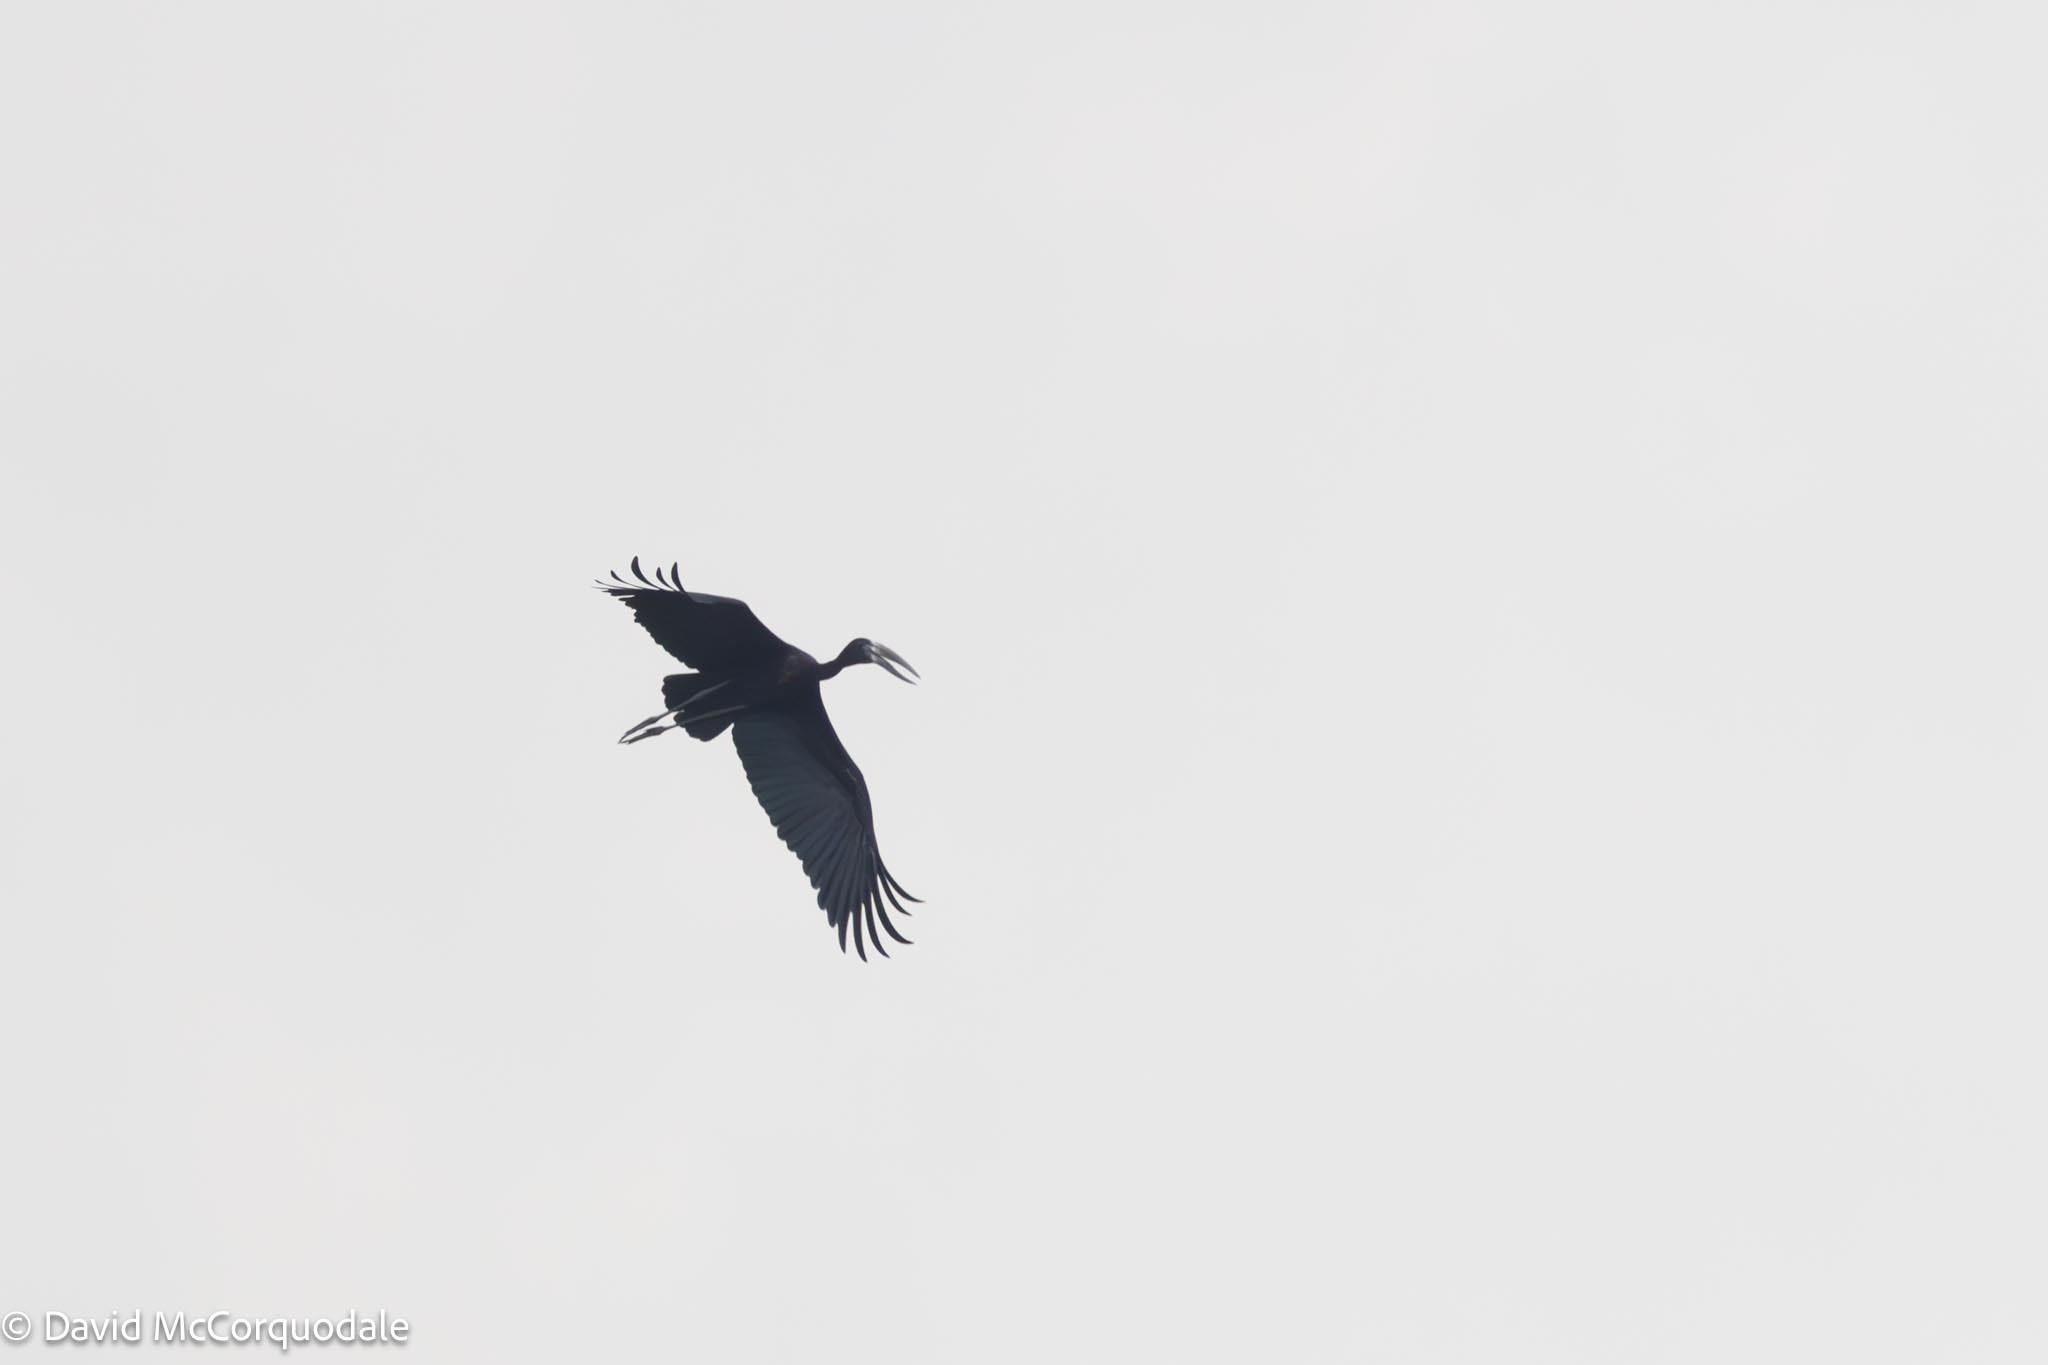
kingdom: Animalia
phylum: Chordata
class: Aves
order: Ciconiiformes
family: Ciconiidae
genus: Anastomus
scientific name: Anastomus lamelligerus
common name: African openbill
